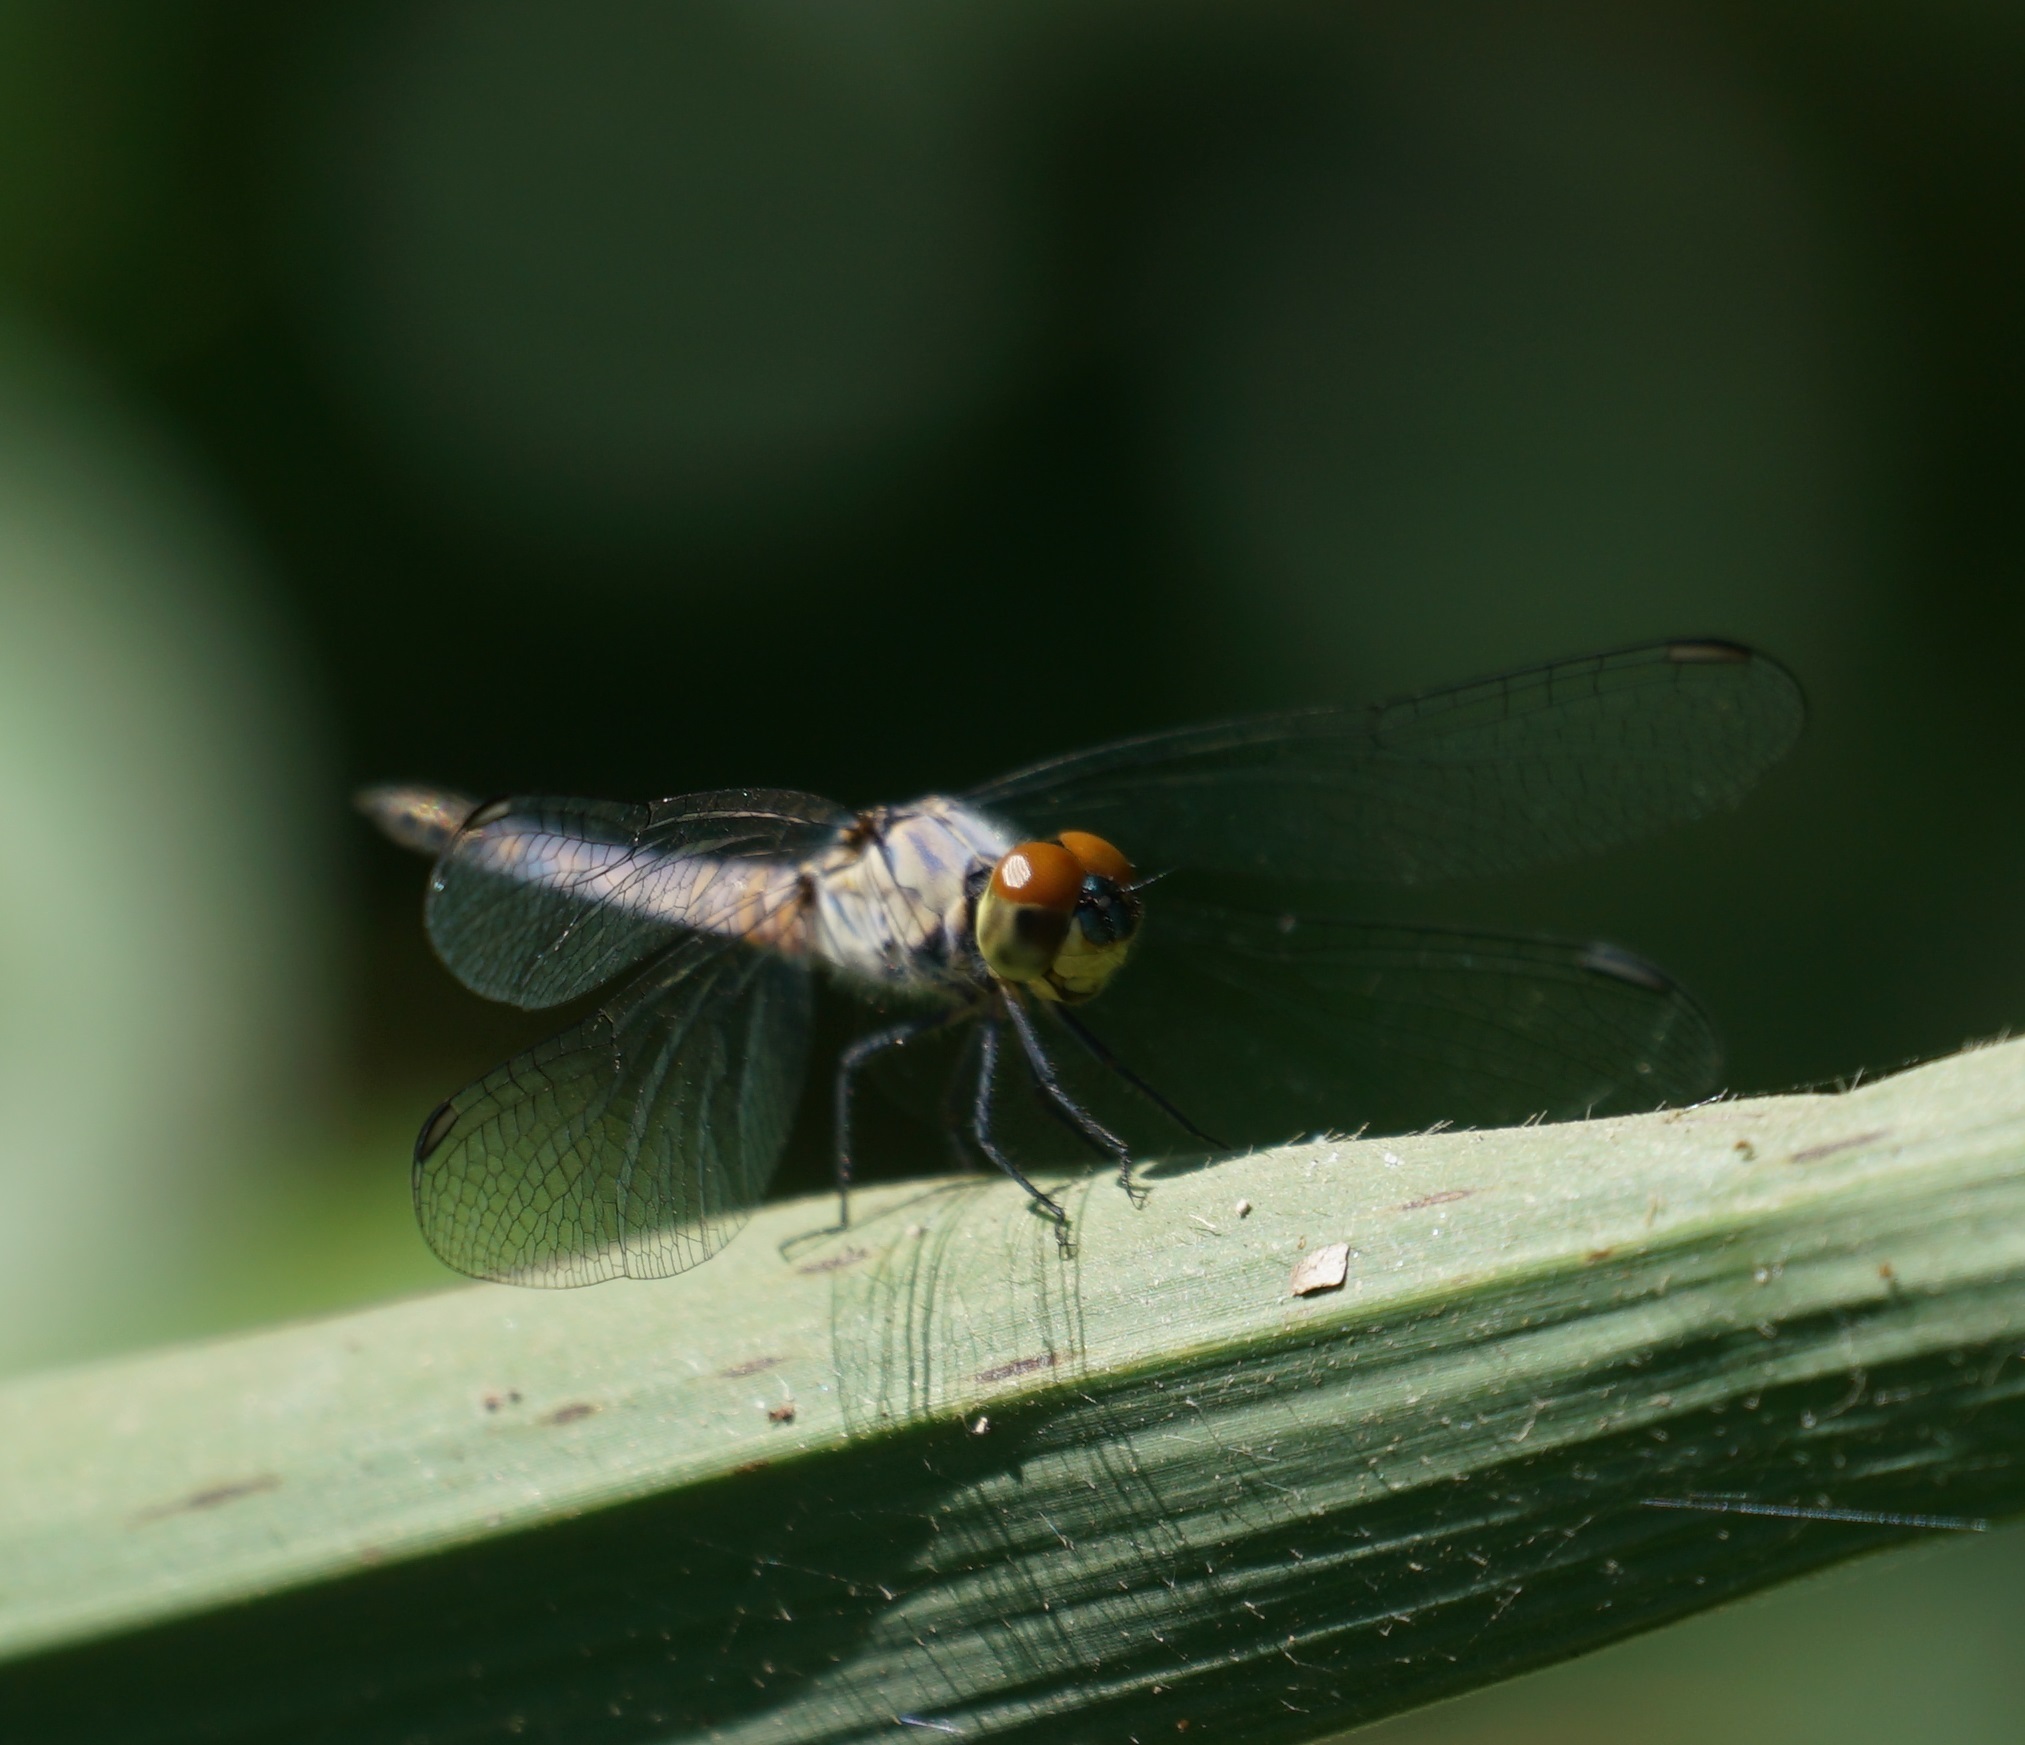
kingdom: Animalia
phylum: Arthropoda
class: Insecta
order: Odonata
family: Libellulidae
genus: Brachydiplax
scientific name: Brachydiplax denticauda
